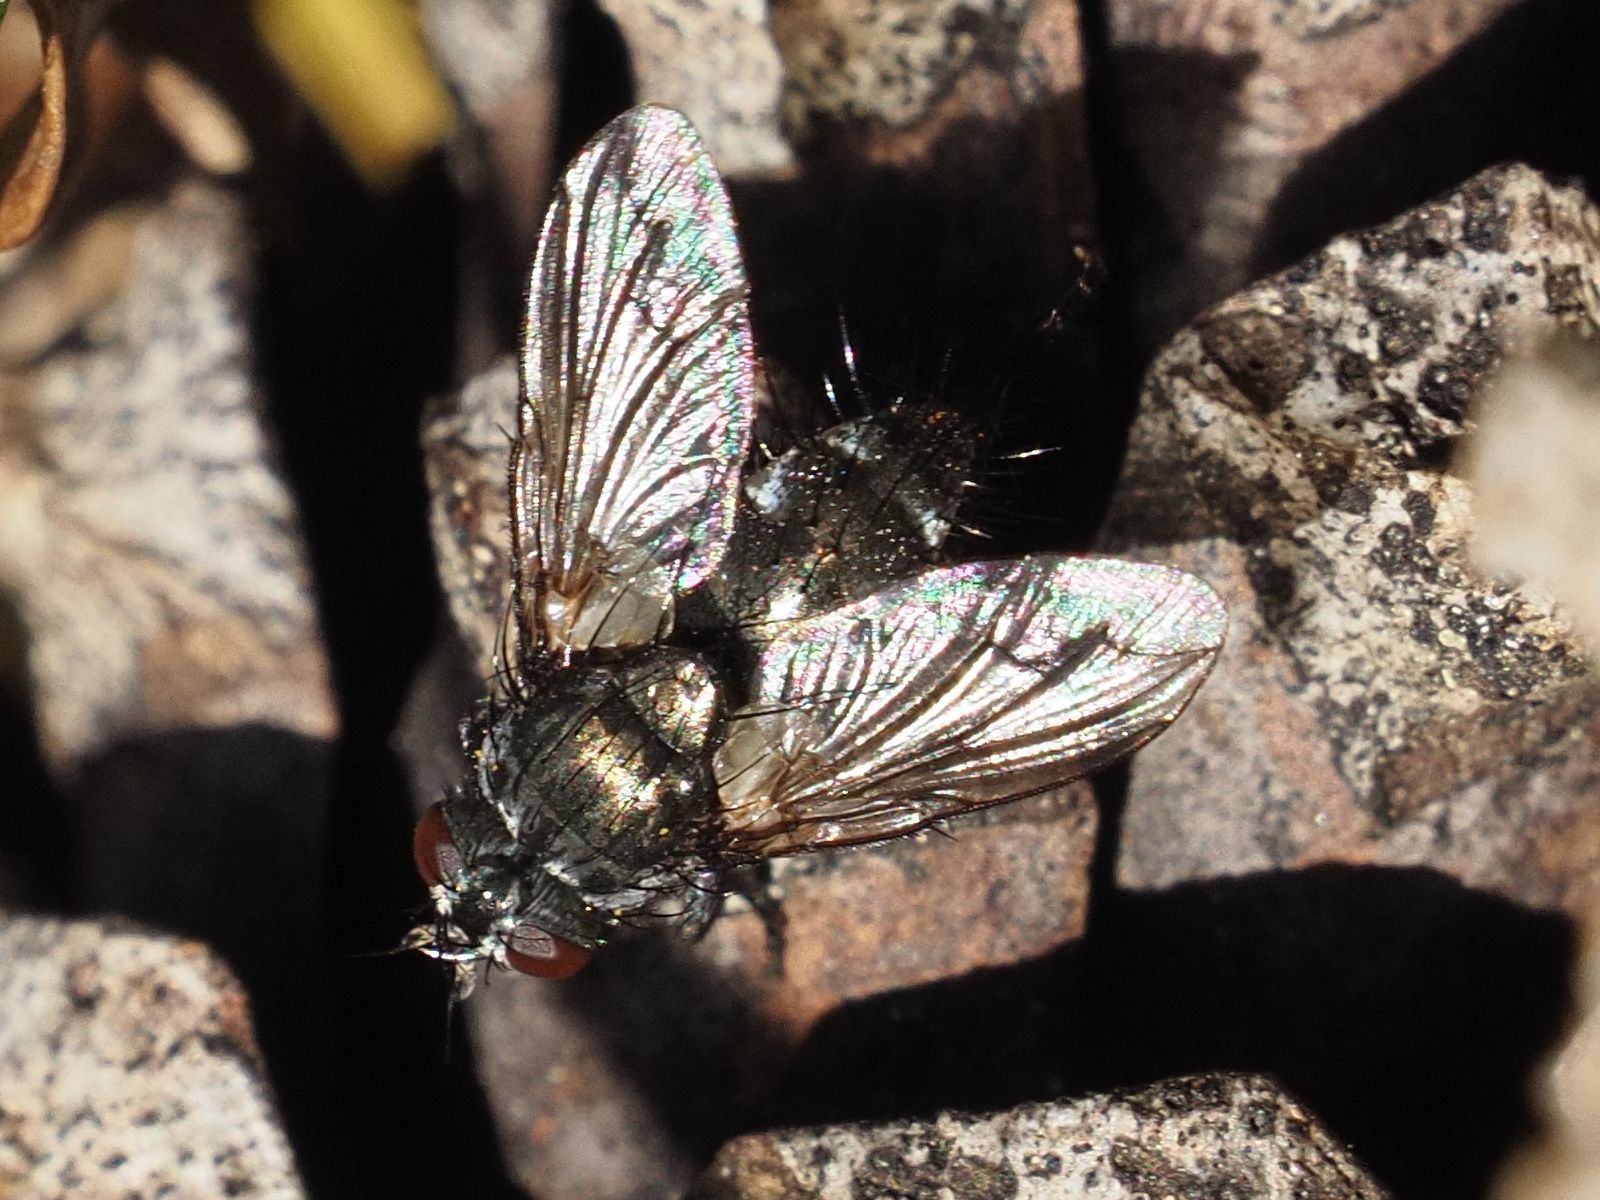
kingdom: Animalia
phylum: Arthropoda
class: Insecta
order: Diptera
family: Tachinidae
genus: Periscepsia
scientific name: Periscepsia spathulata
